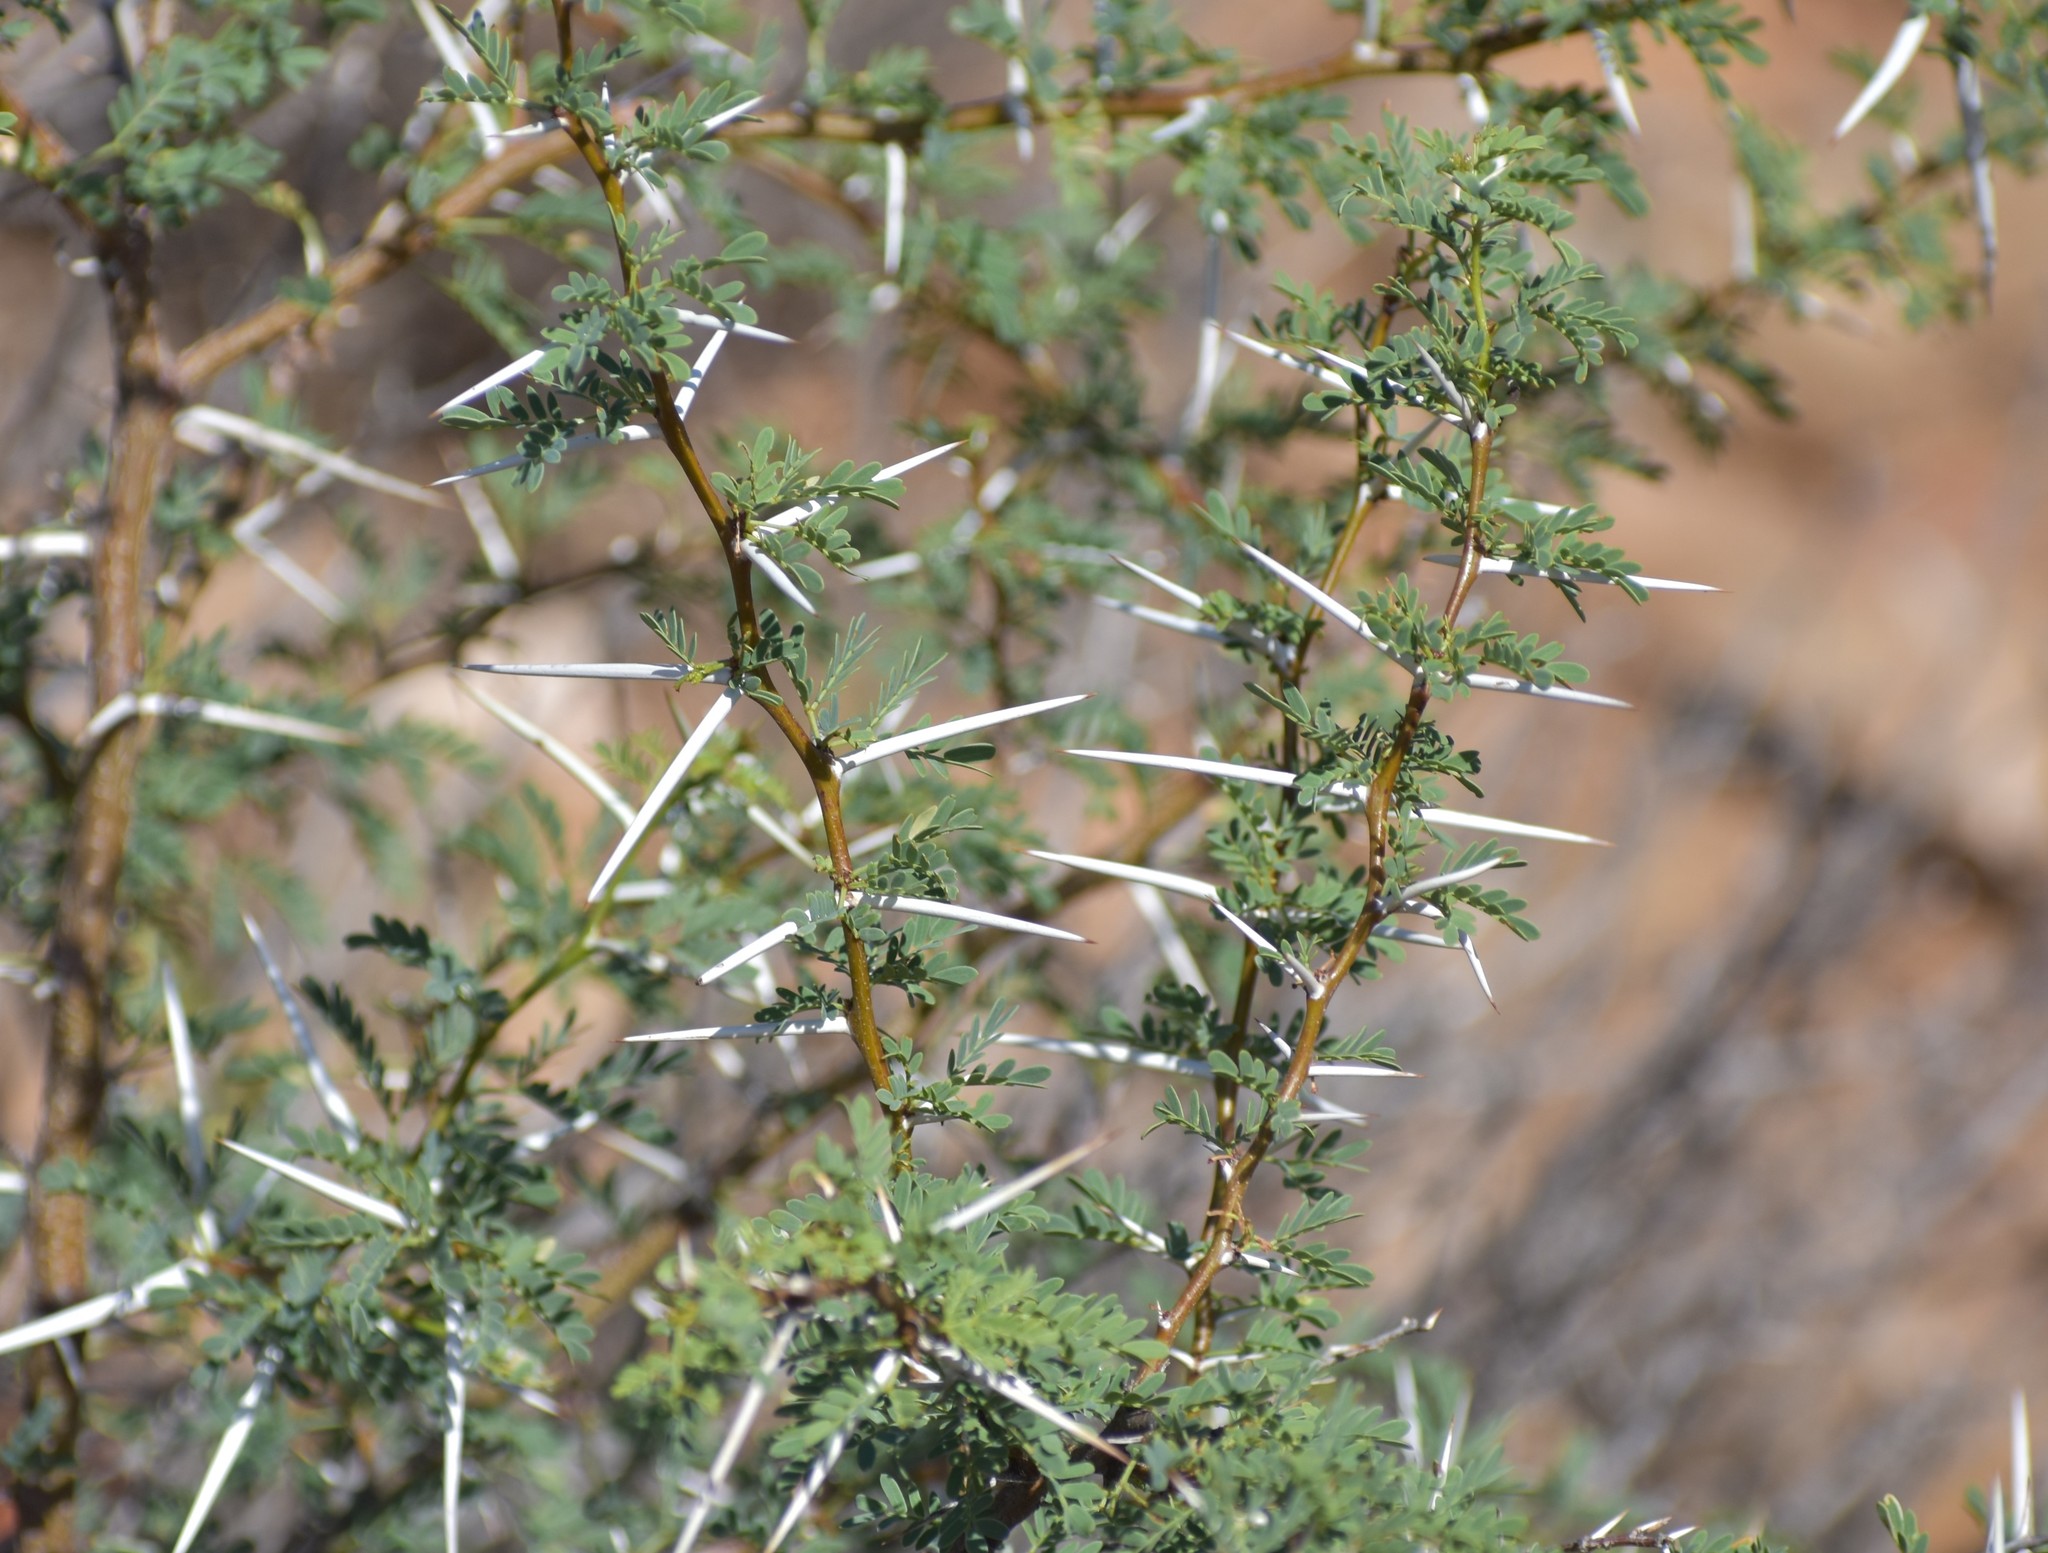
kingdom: Plantae
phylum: Tracheophyta
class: Magnoliopsida
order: Fabales
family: Fabaceae
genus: Vachellia
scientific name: Vachellia karroo
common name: Sweet thorn
